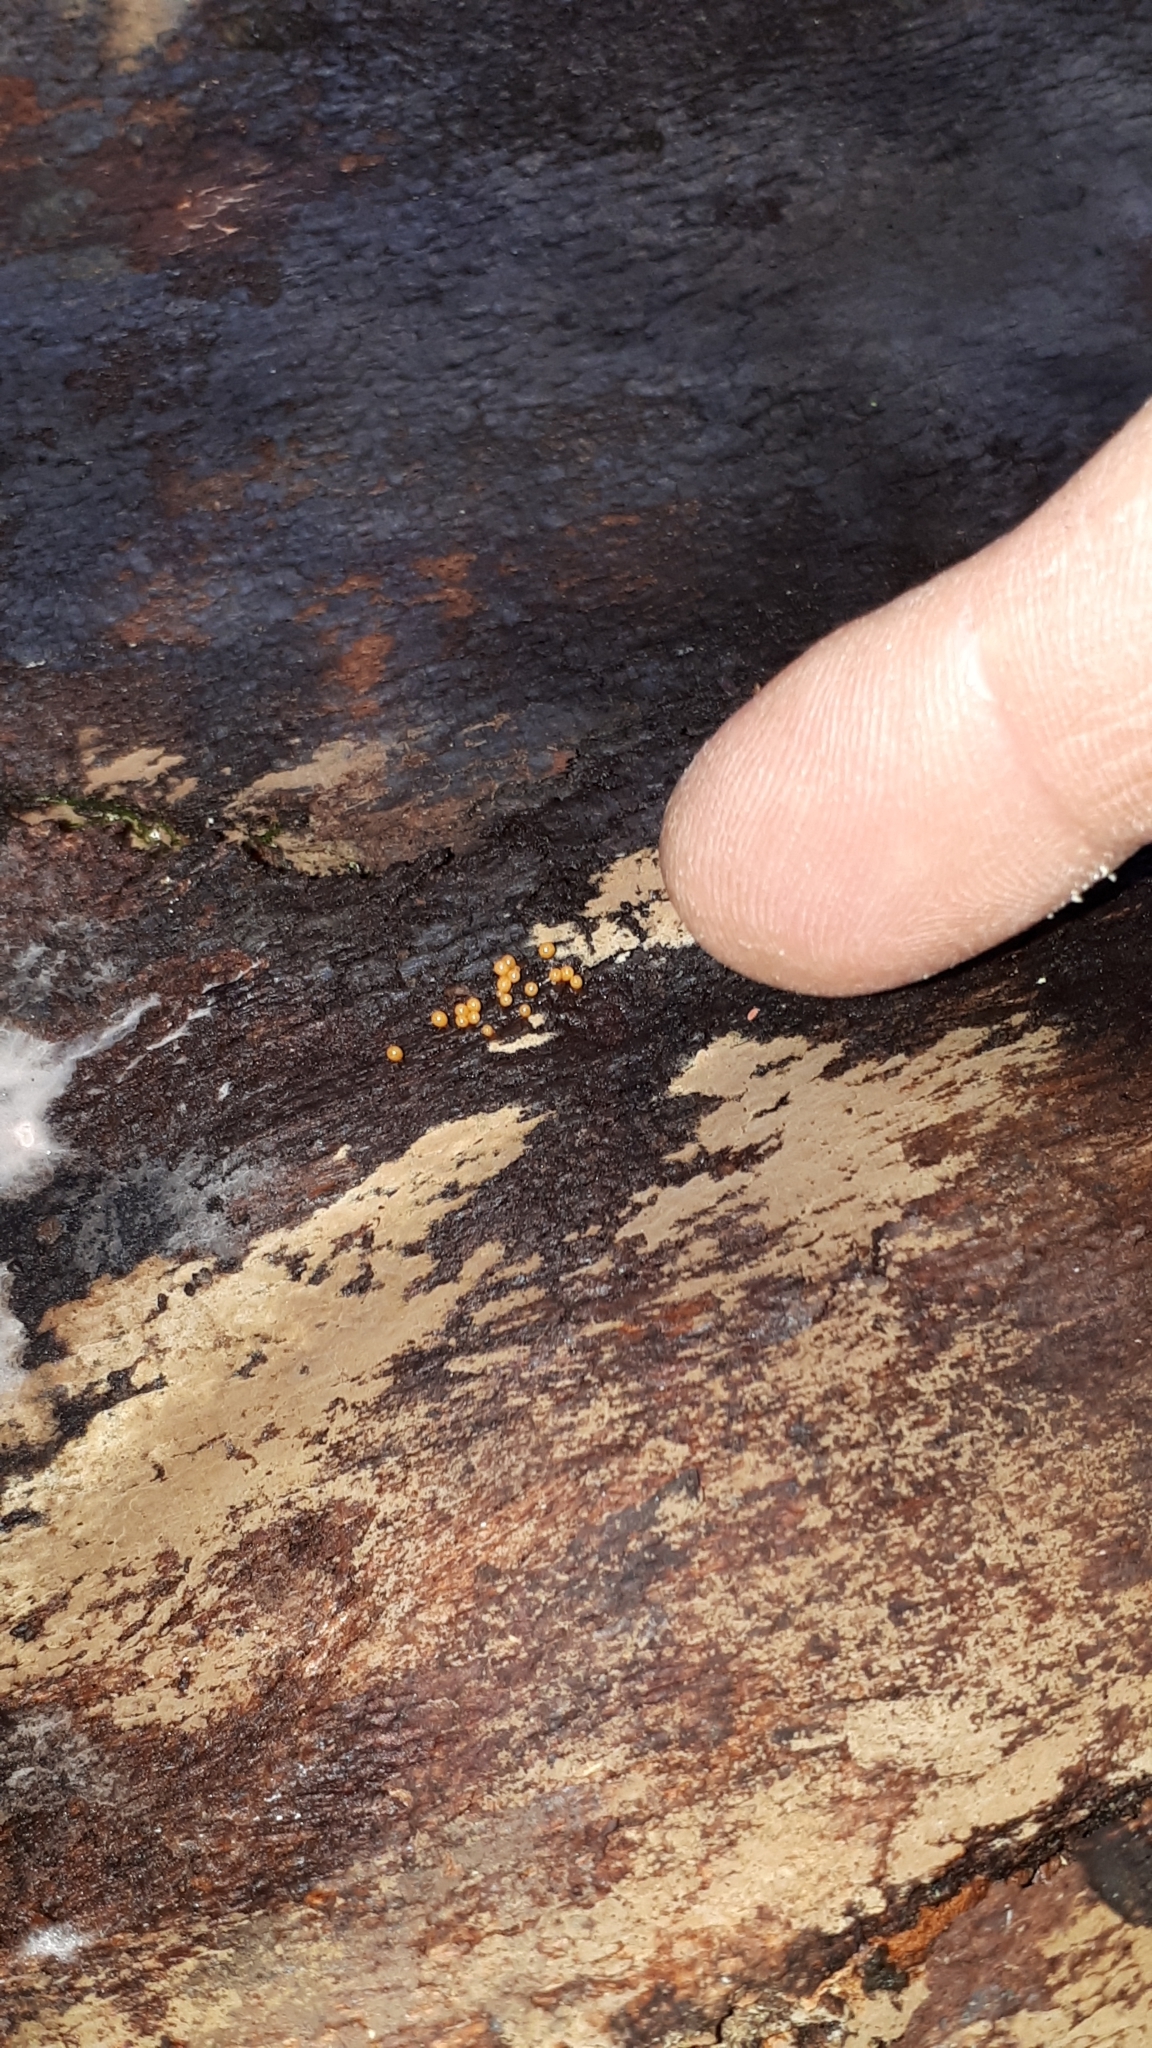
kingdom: Protozoa
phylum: Mycetozoa
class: Myxomycetes
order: Trichiales
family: Trichiaceae
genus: Trichia
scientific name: Trichia ambigua
